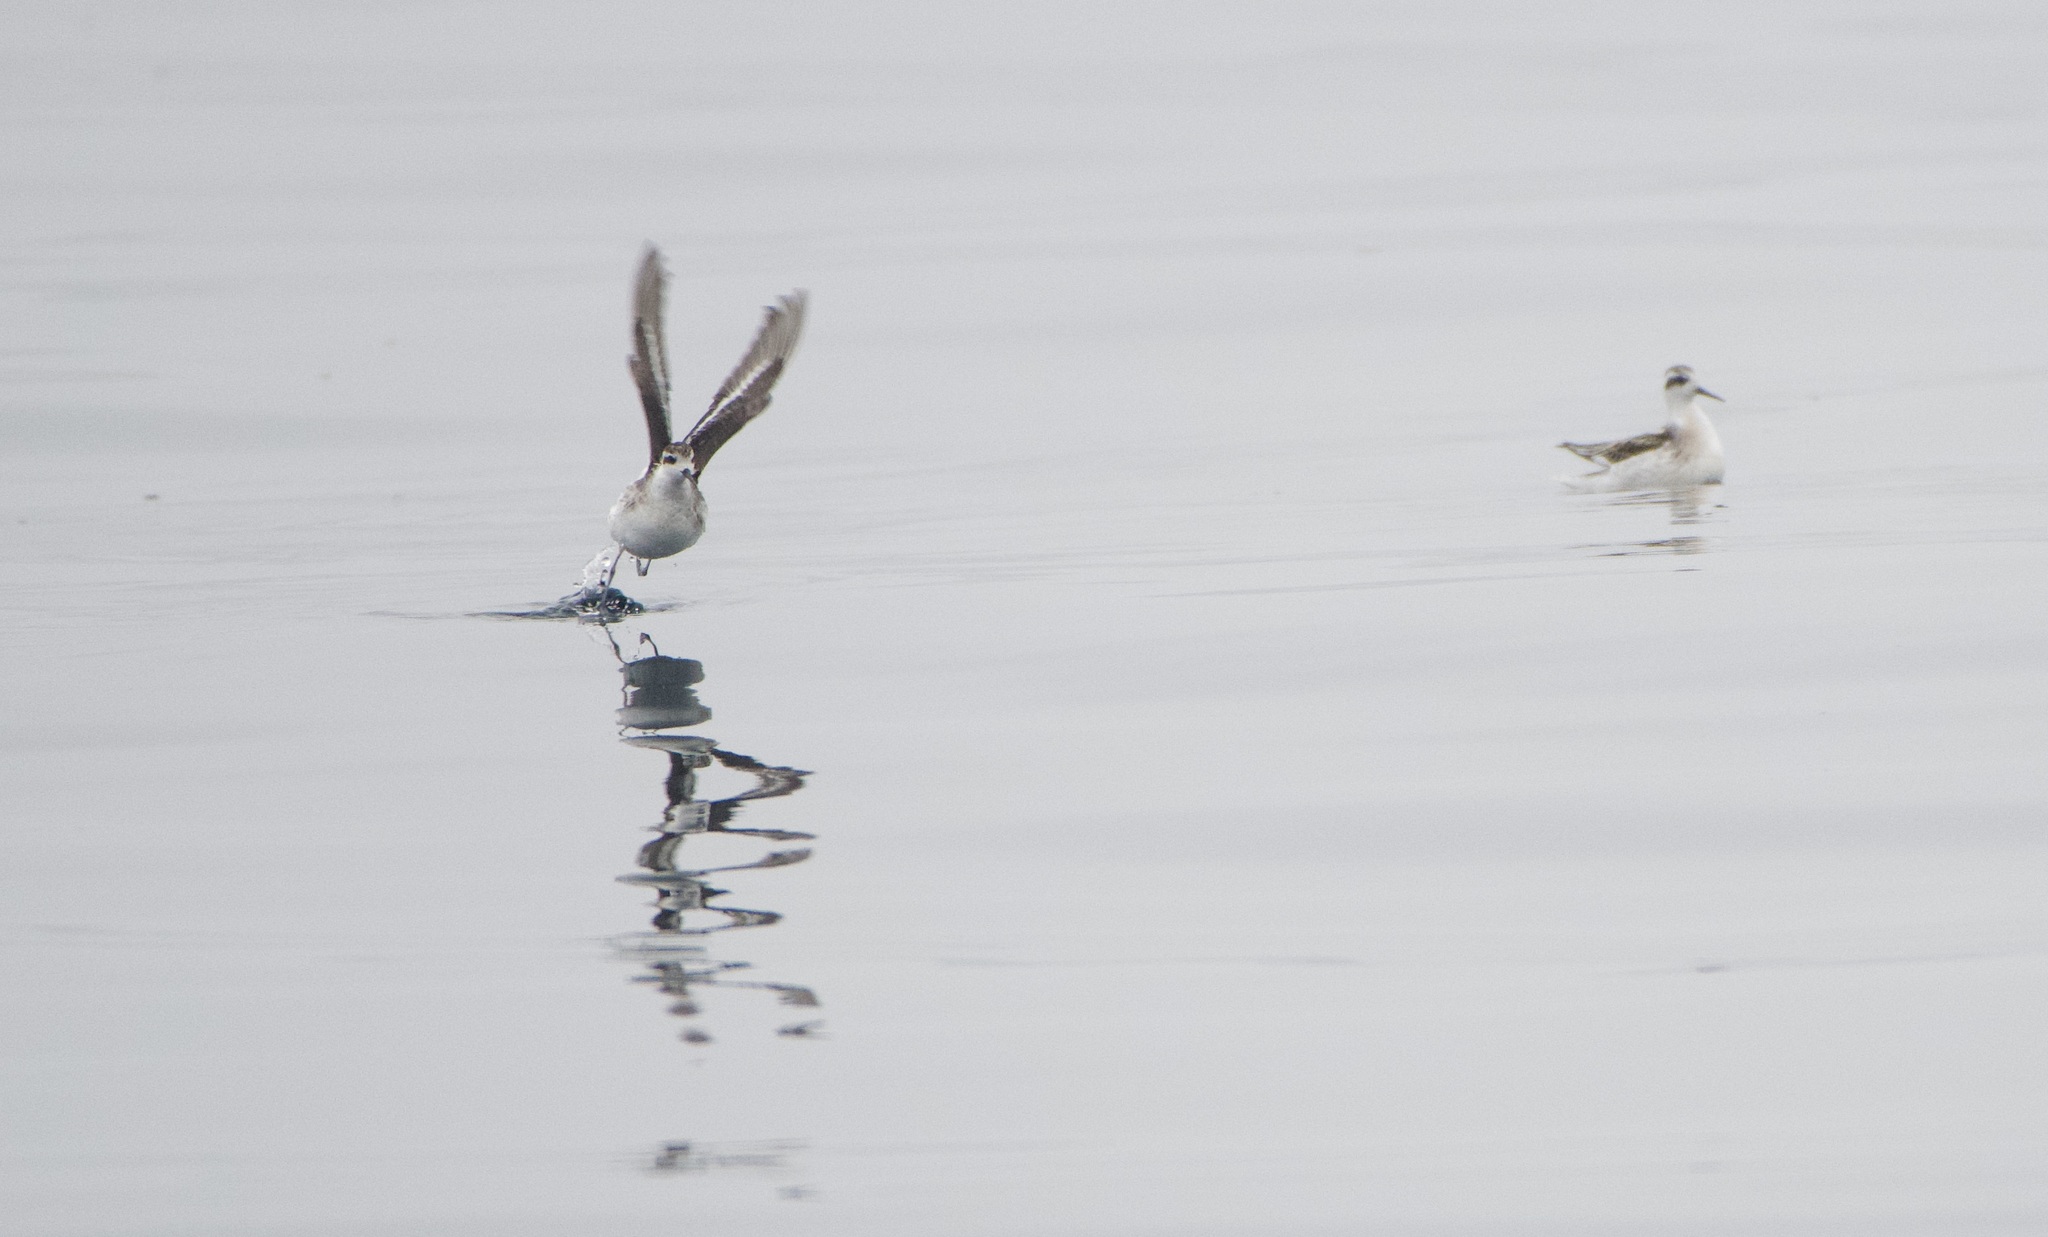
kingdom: Animalia
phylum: Chordata
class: Aves
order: Charadriiformes
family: Scolopacidae
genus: Phalaropus
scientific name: Phalaropus lobatus
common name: Red-necked phalarope
